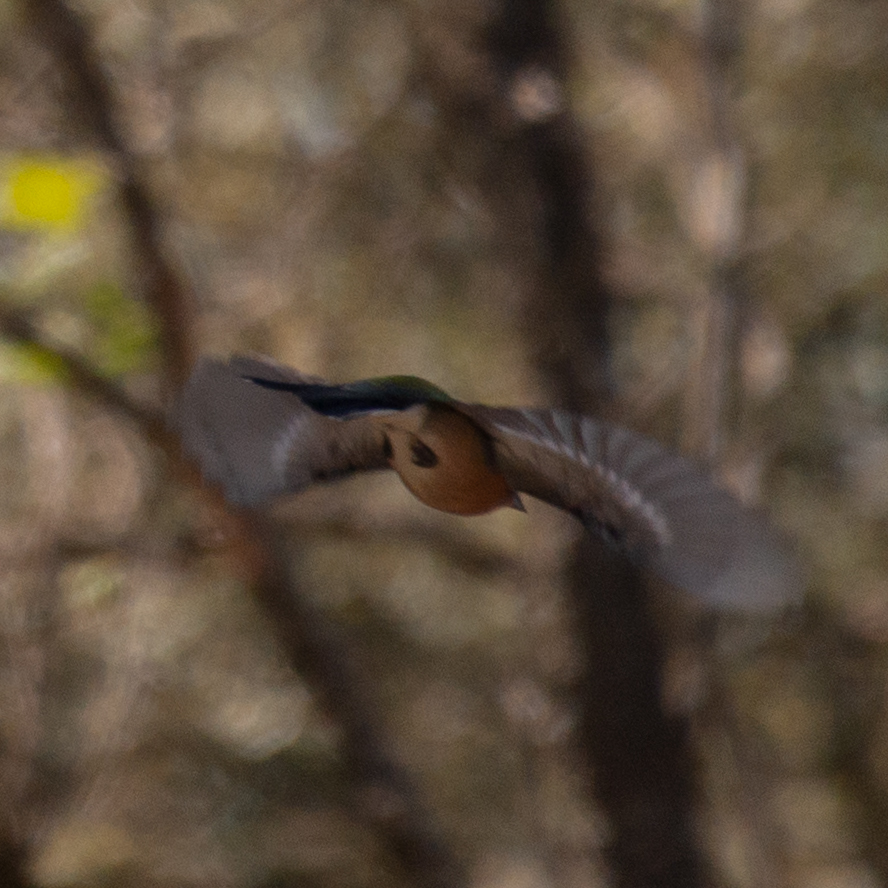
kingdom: Animalia
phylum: Chordata
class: Aves
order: Passeriformes
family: Fringillidae
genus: Fringilla
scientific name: Fringilla coelebs
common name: Common chaffinch
